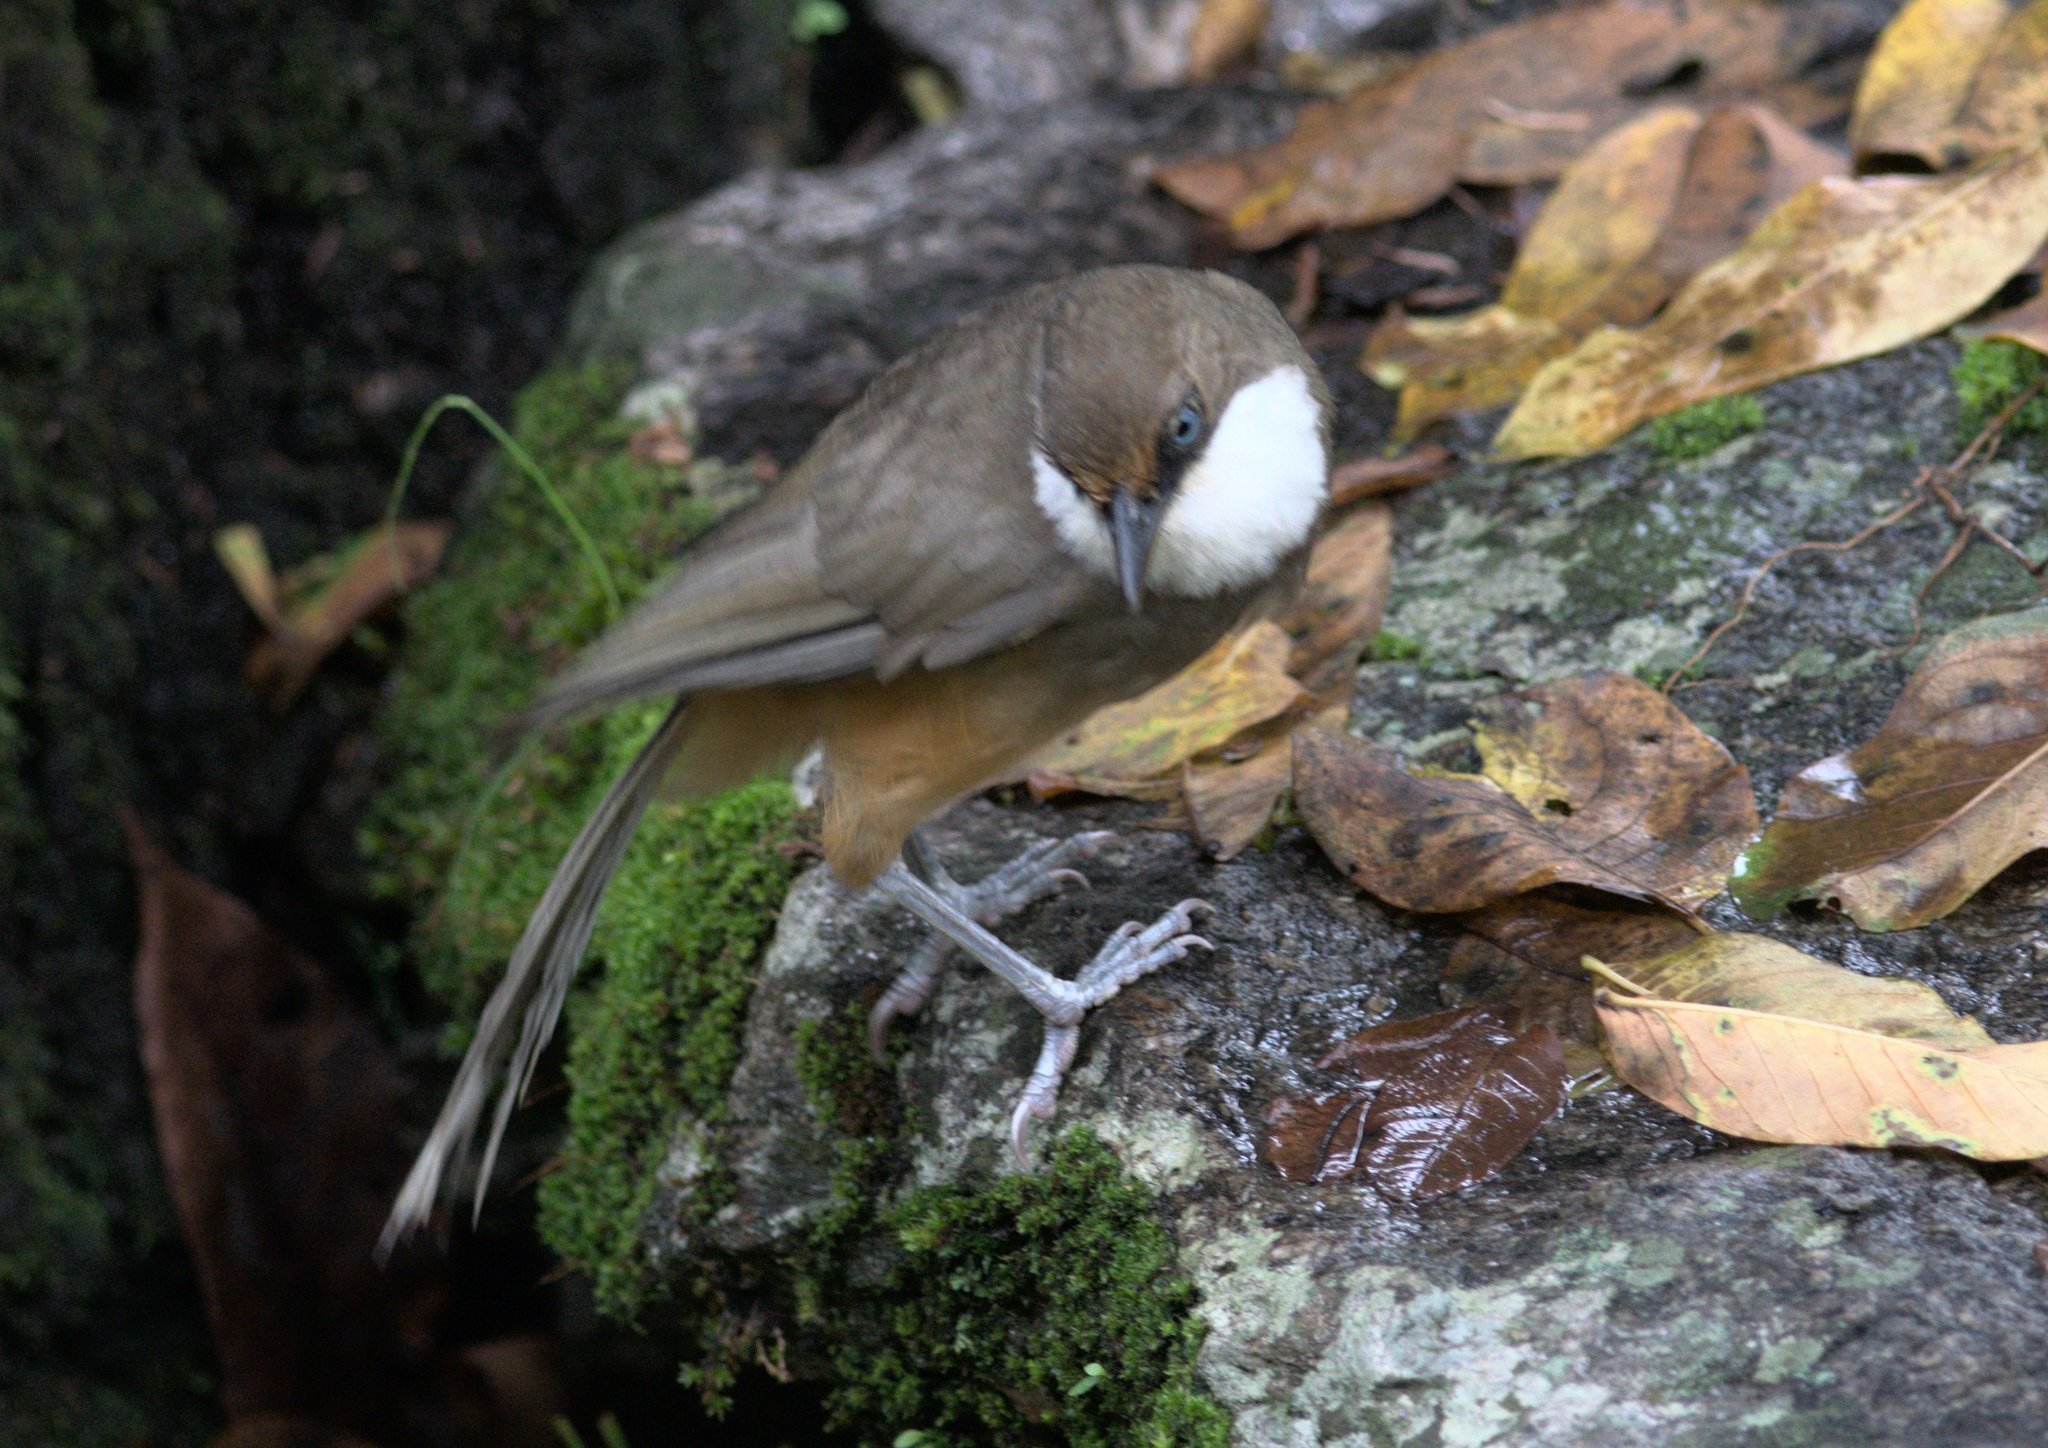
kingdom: Animalia
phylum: Chordata
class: Aves
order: Passeriformes
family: Leiothrichidae
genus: Garrulax
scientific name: Garrulax albogularis
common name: White-throated laughingthrush
